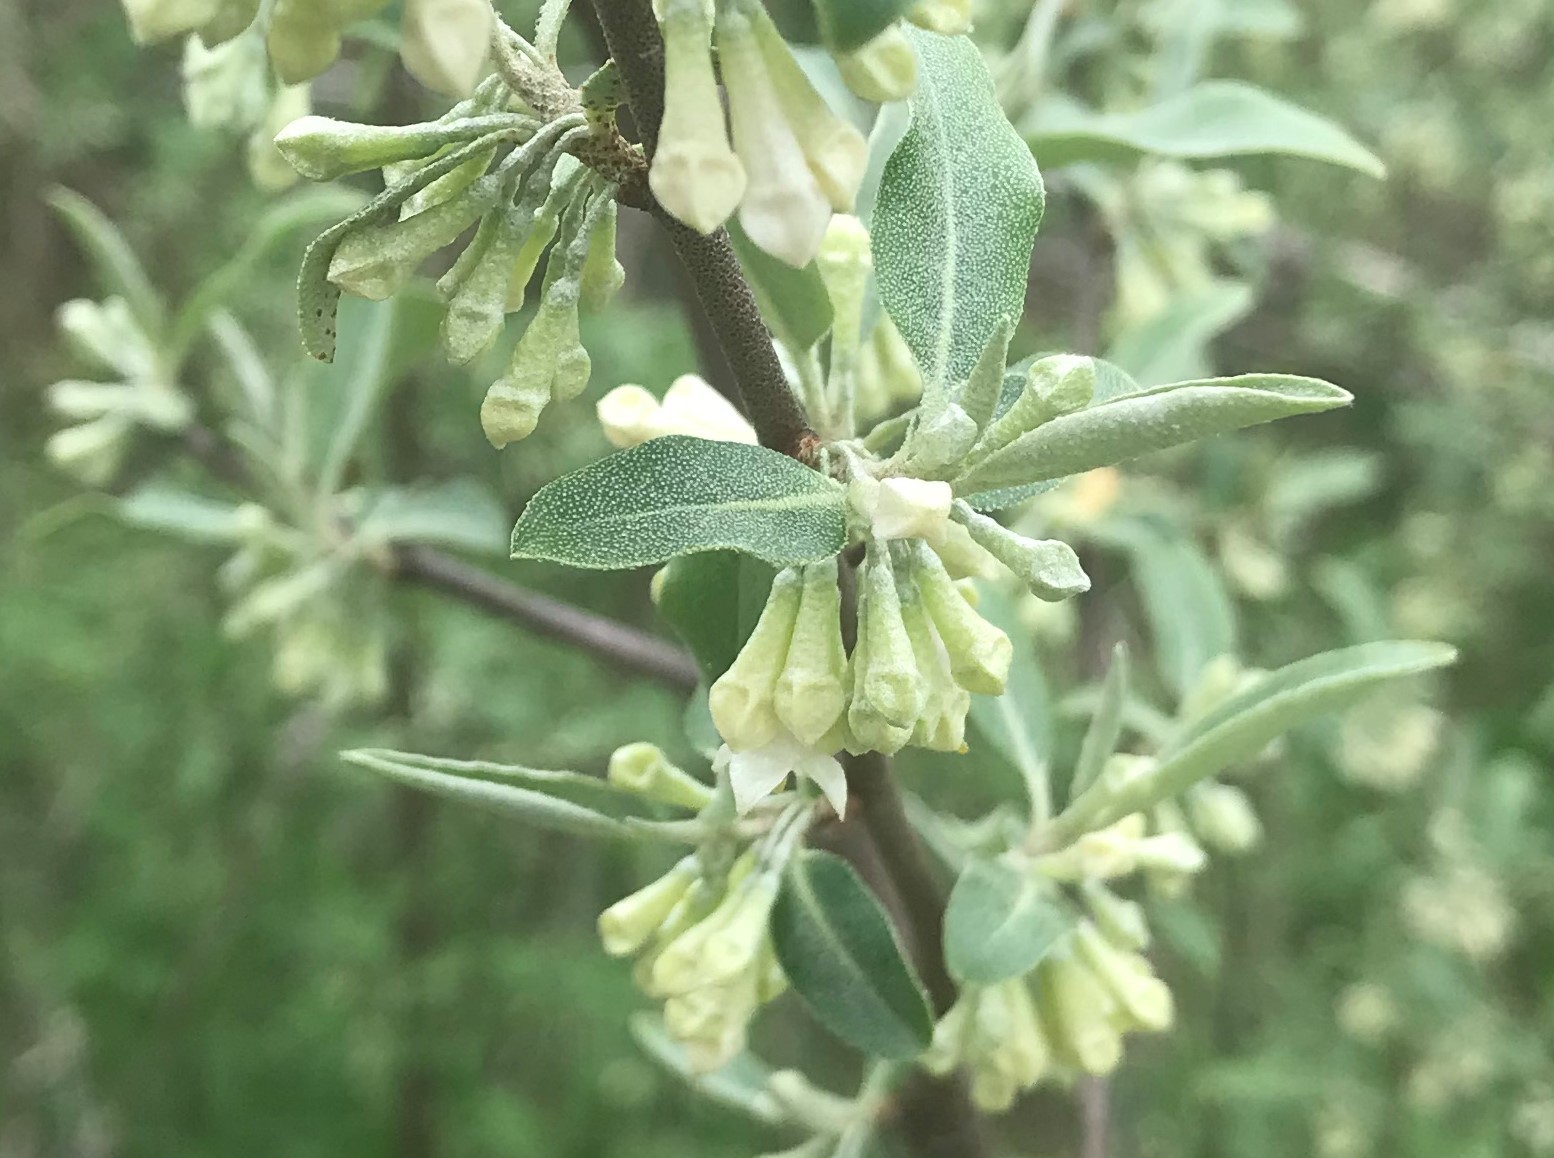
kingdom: Plantae
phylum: Tracheophyta
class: Magnoliopsida
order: Rosales
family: Elaeagnaceae
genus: Elaeagnus
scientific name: Elaeagnus umbellata
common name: Autumn olive
